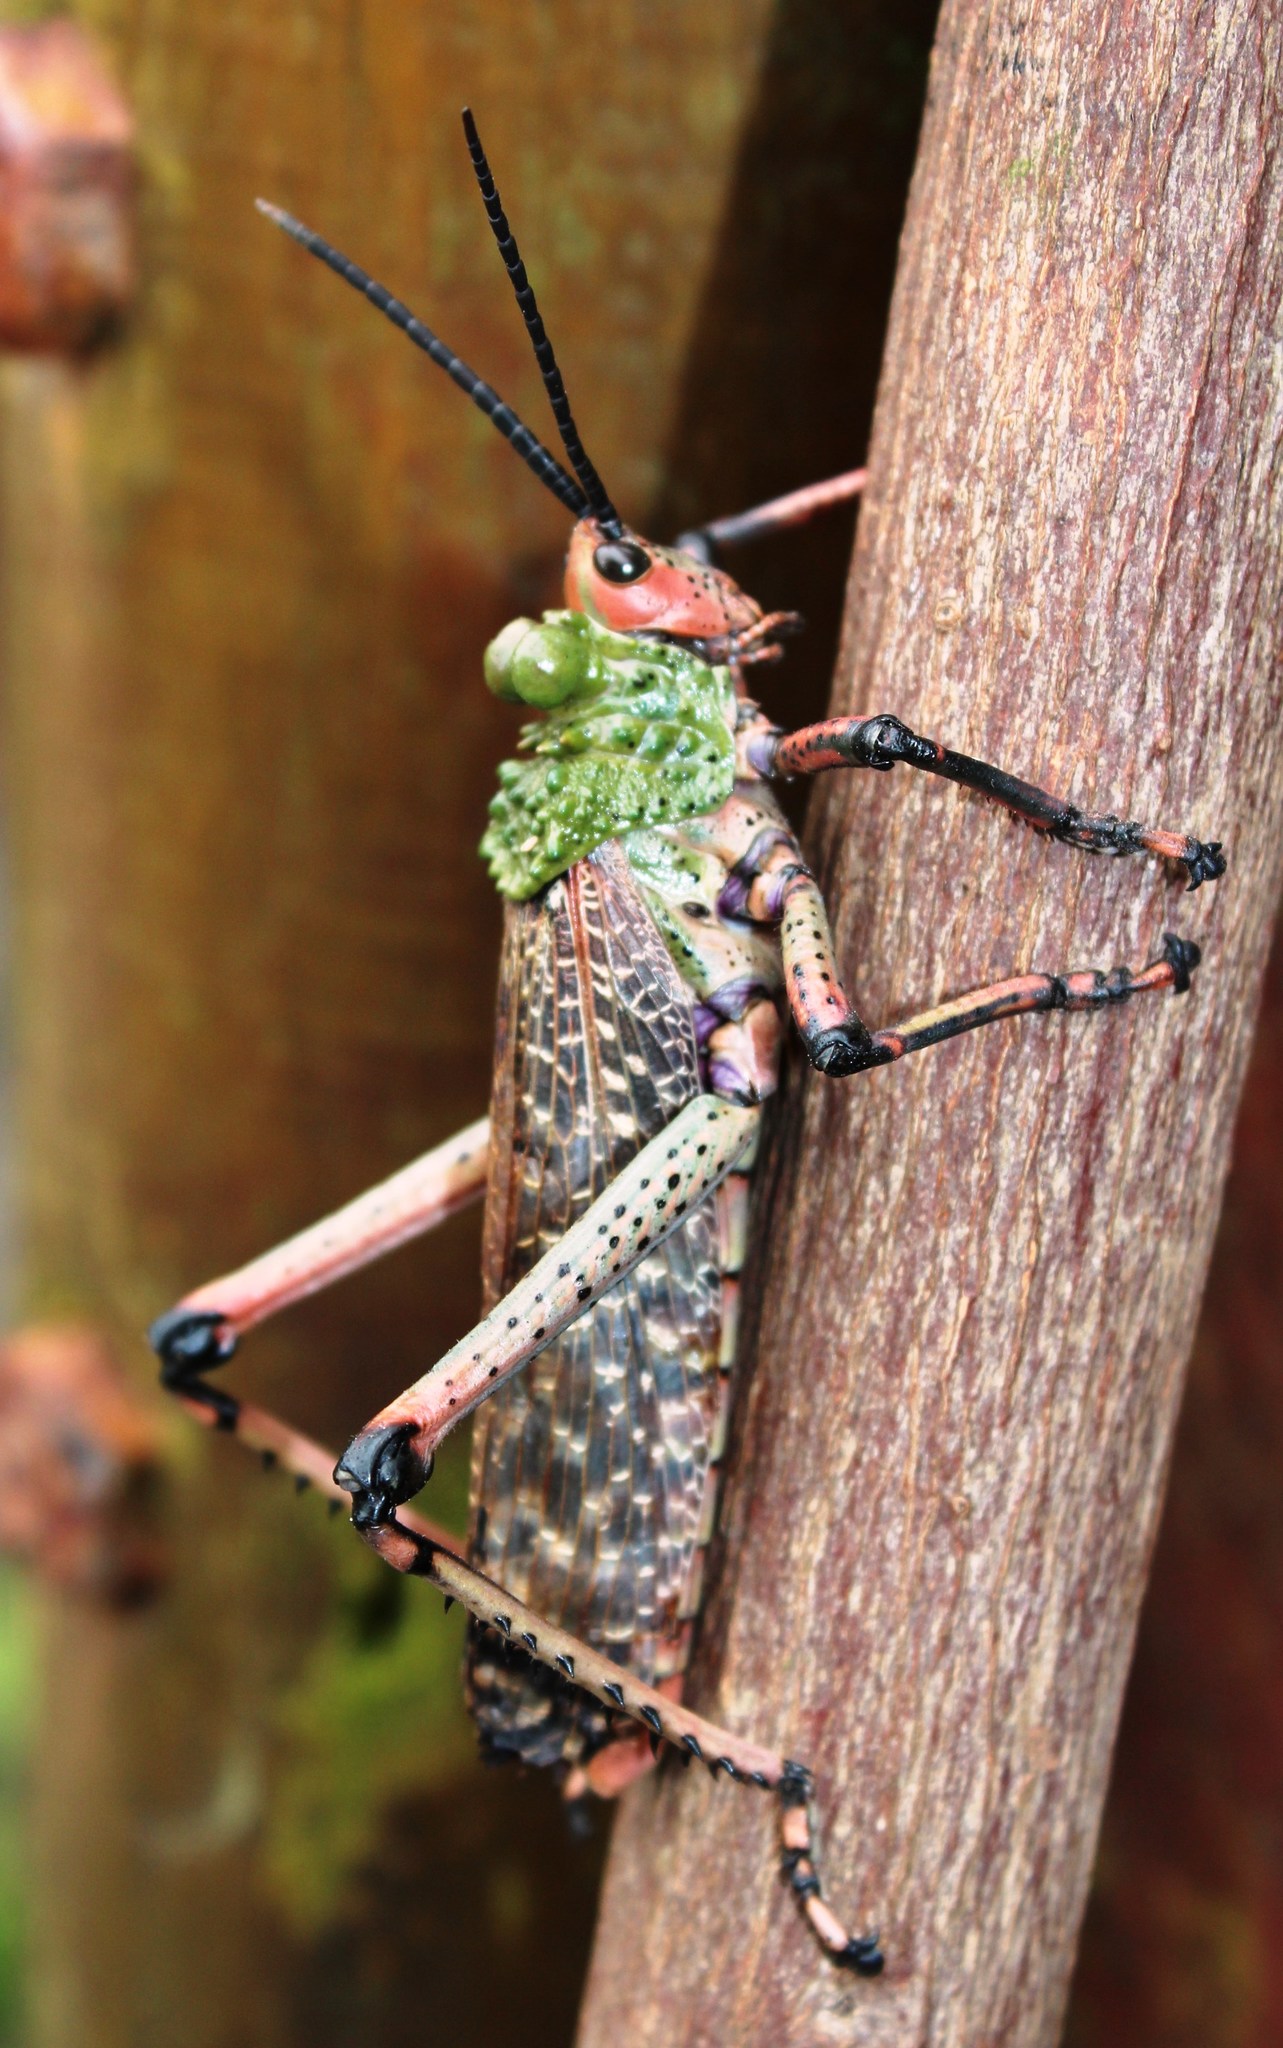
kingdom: Animalia
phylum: Arthropoda
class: Insecta
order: Orthoptera
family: Pyrgomorphidae
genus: Phymateus
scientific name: Phymateus leprosus
